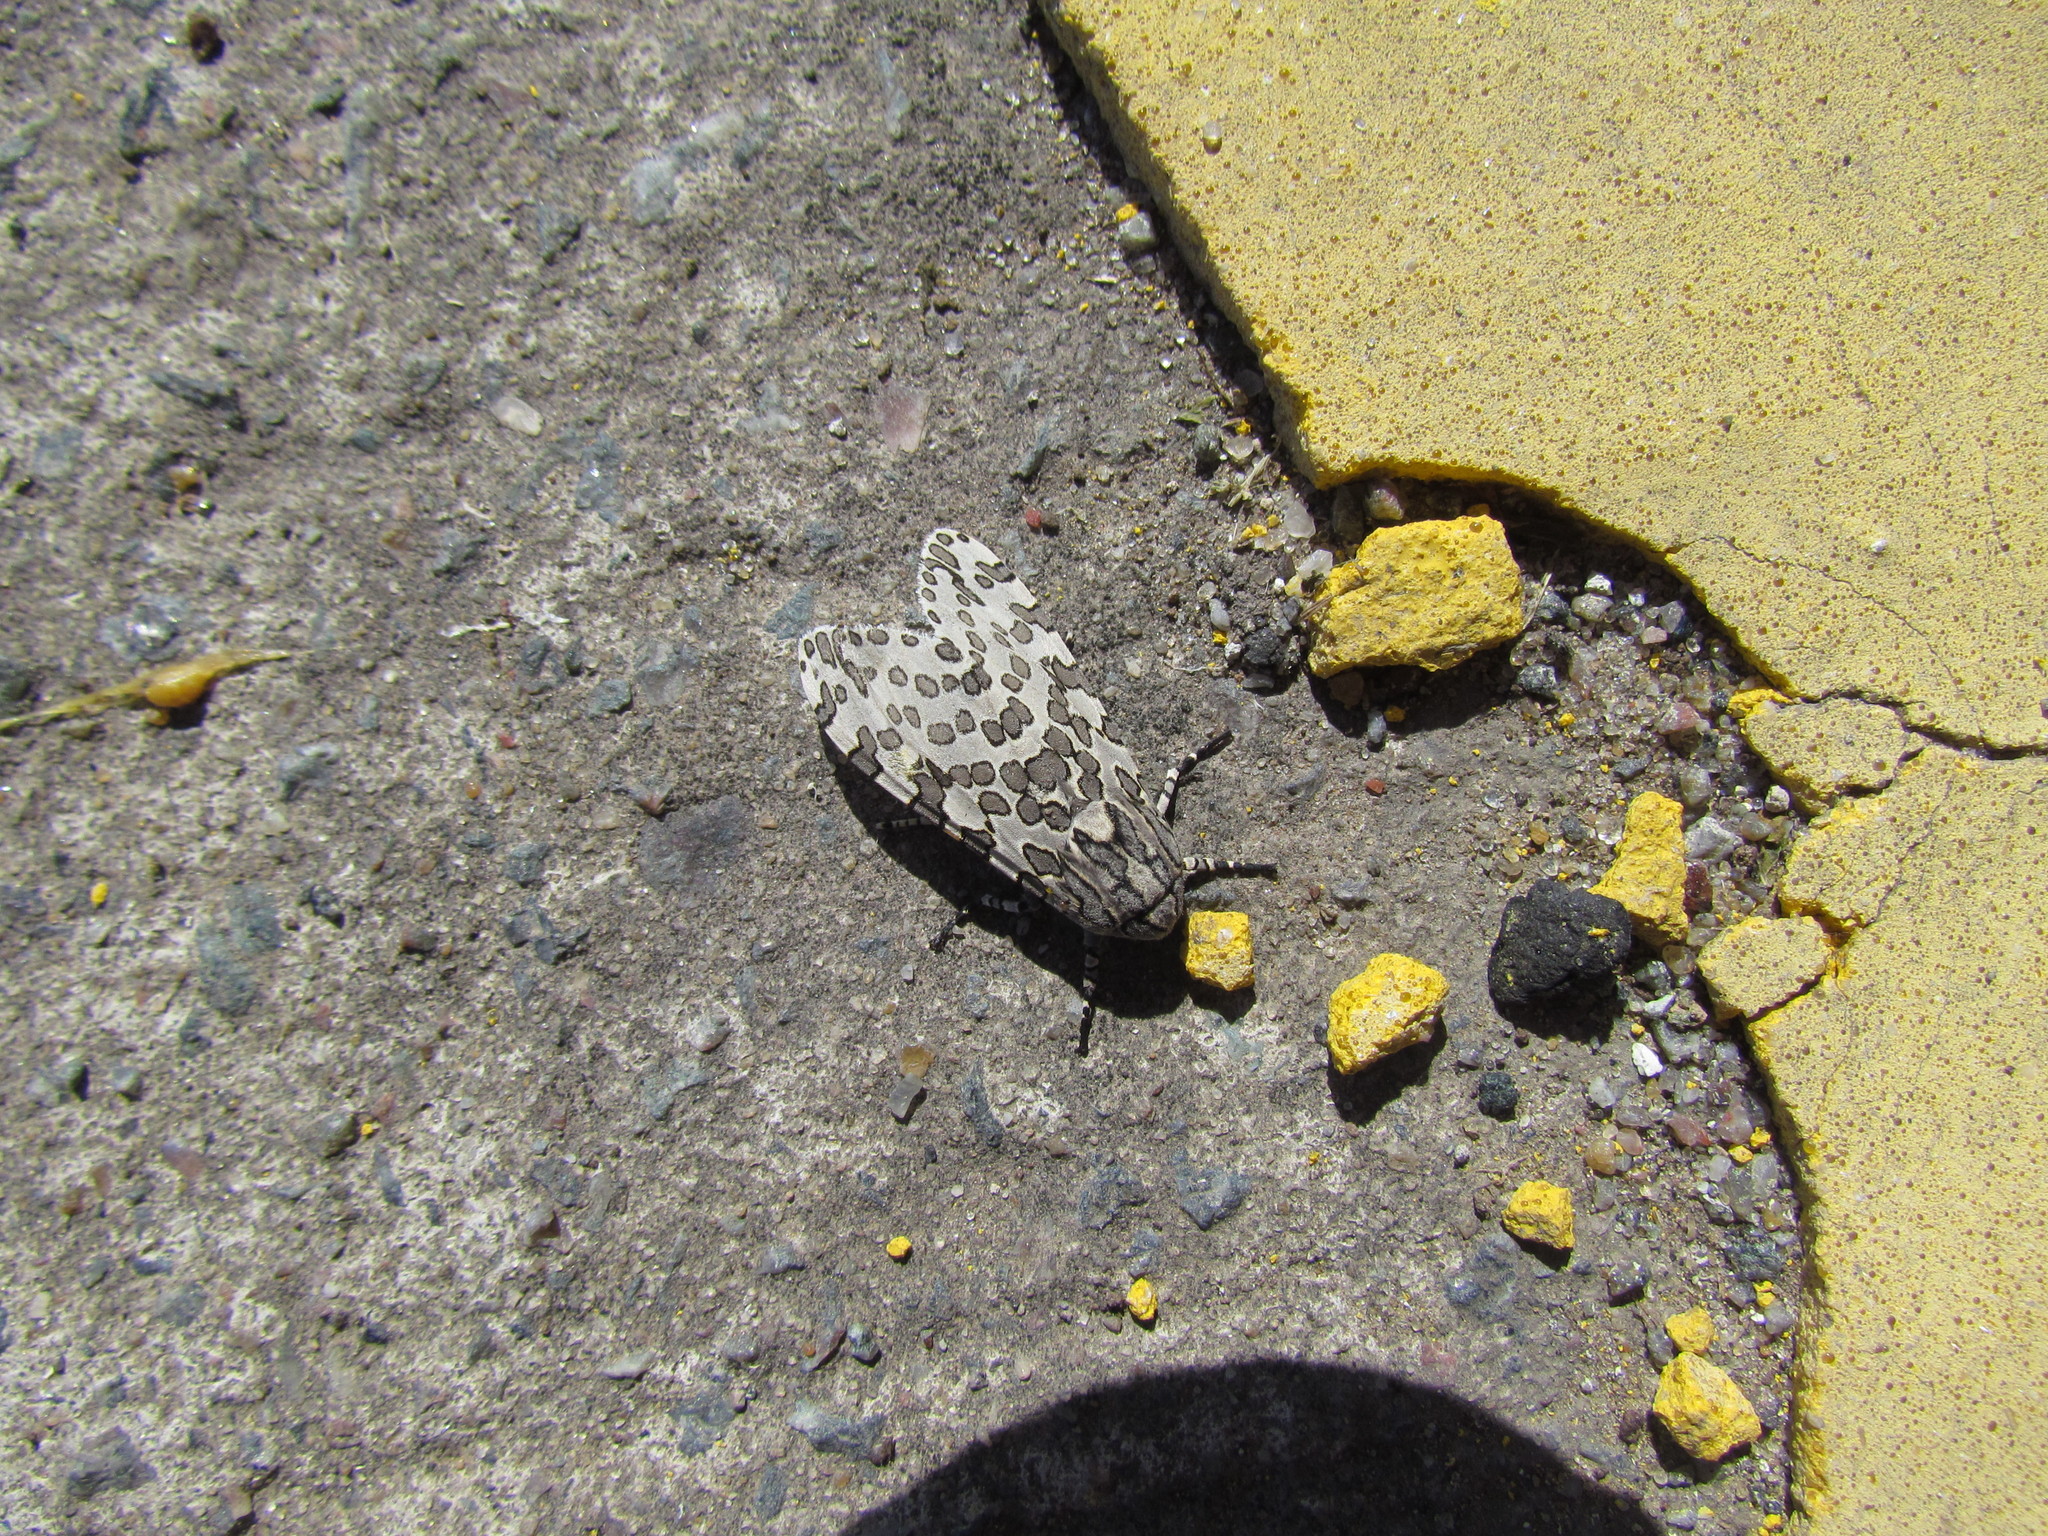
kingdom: Animalia
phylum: Arthropoda
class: Insecta
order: Lepidoptera
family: Erebidae
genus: Hypercompe
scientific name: Hypercompe indecisa
